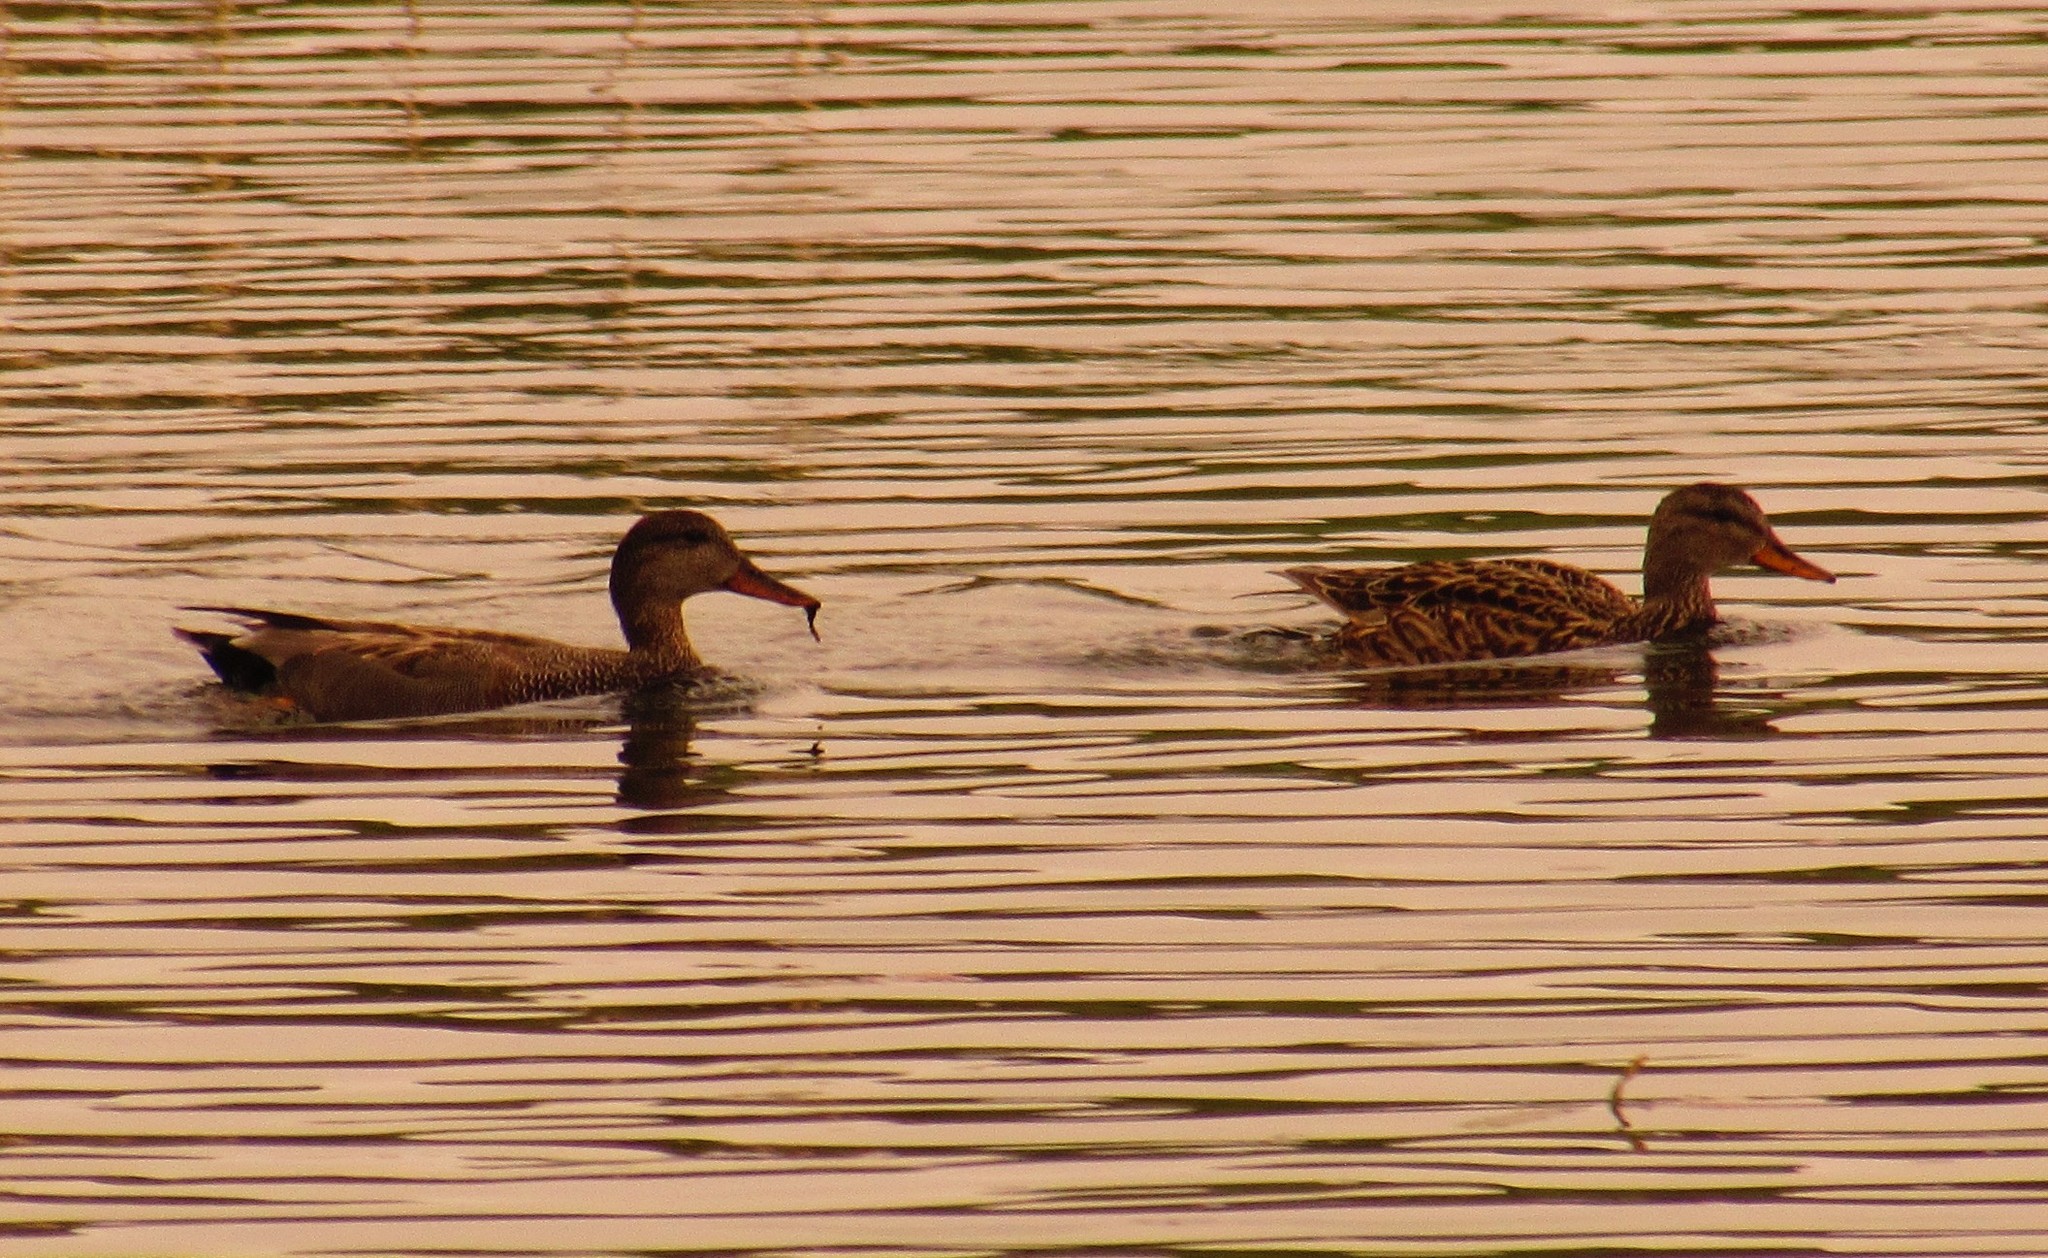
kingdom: Animalia
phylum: Chordata
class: Aves
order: Anseriformes
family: Anatidae
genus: Mareca
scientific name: Mareca strepera
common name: Gadwall
